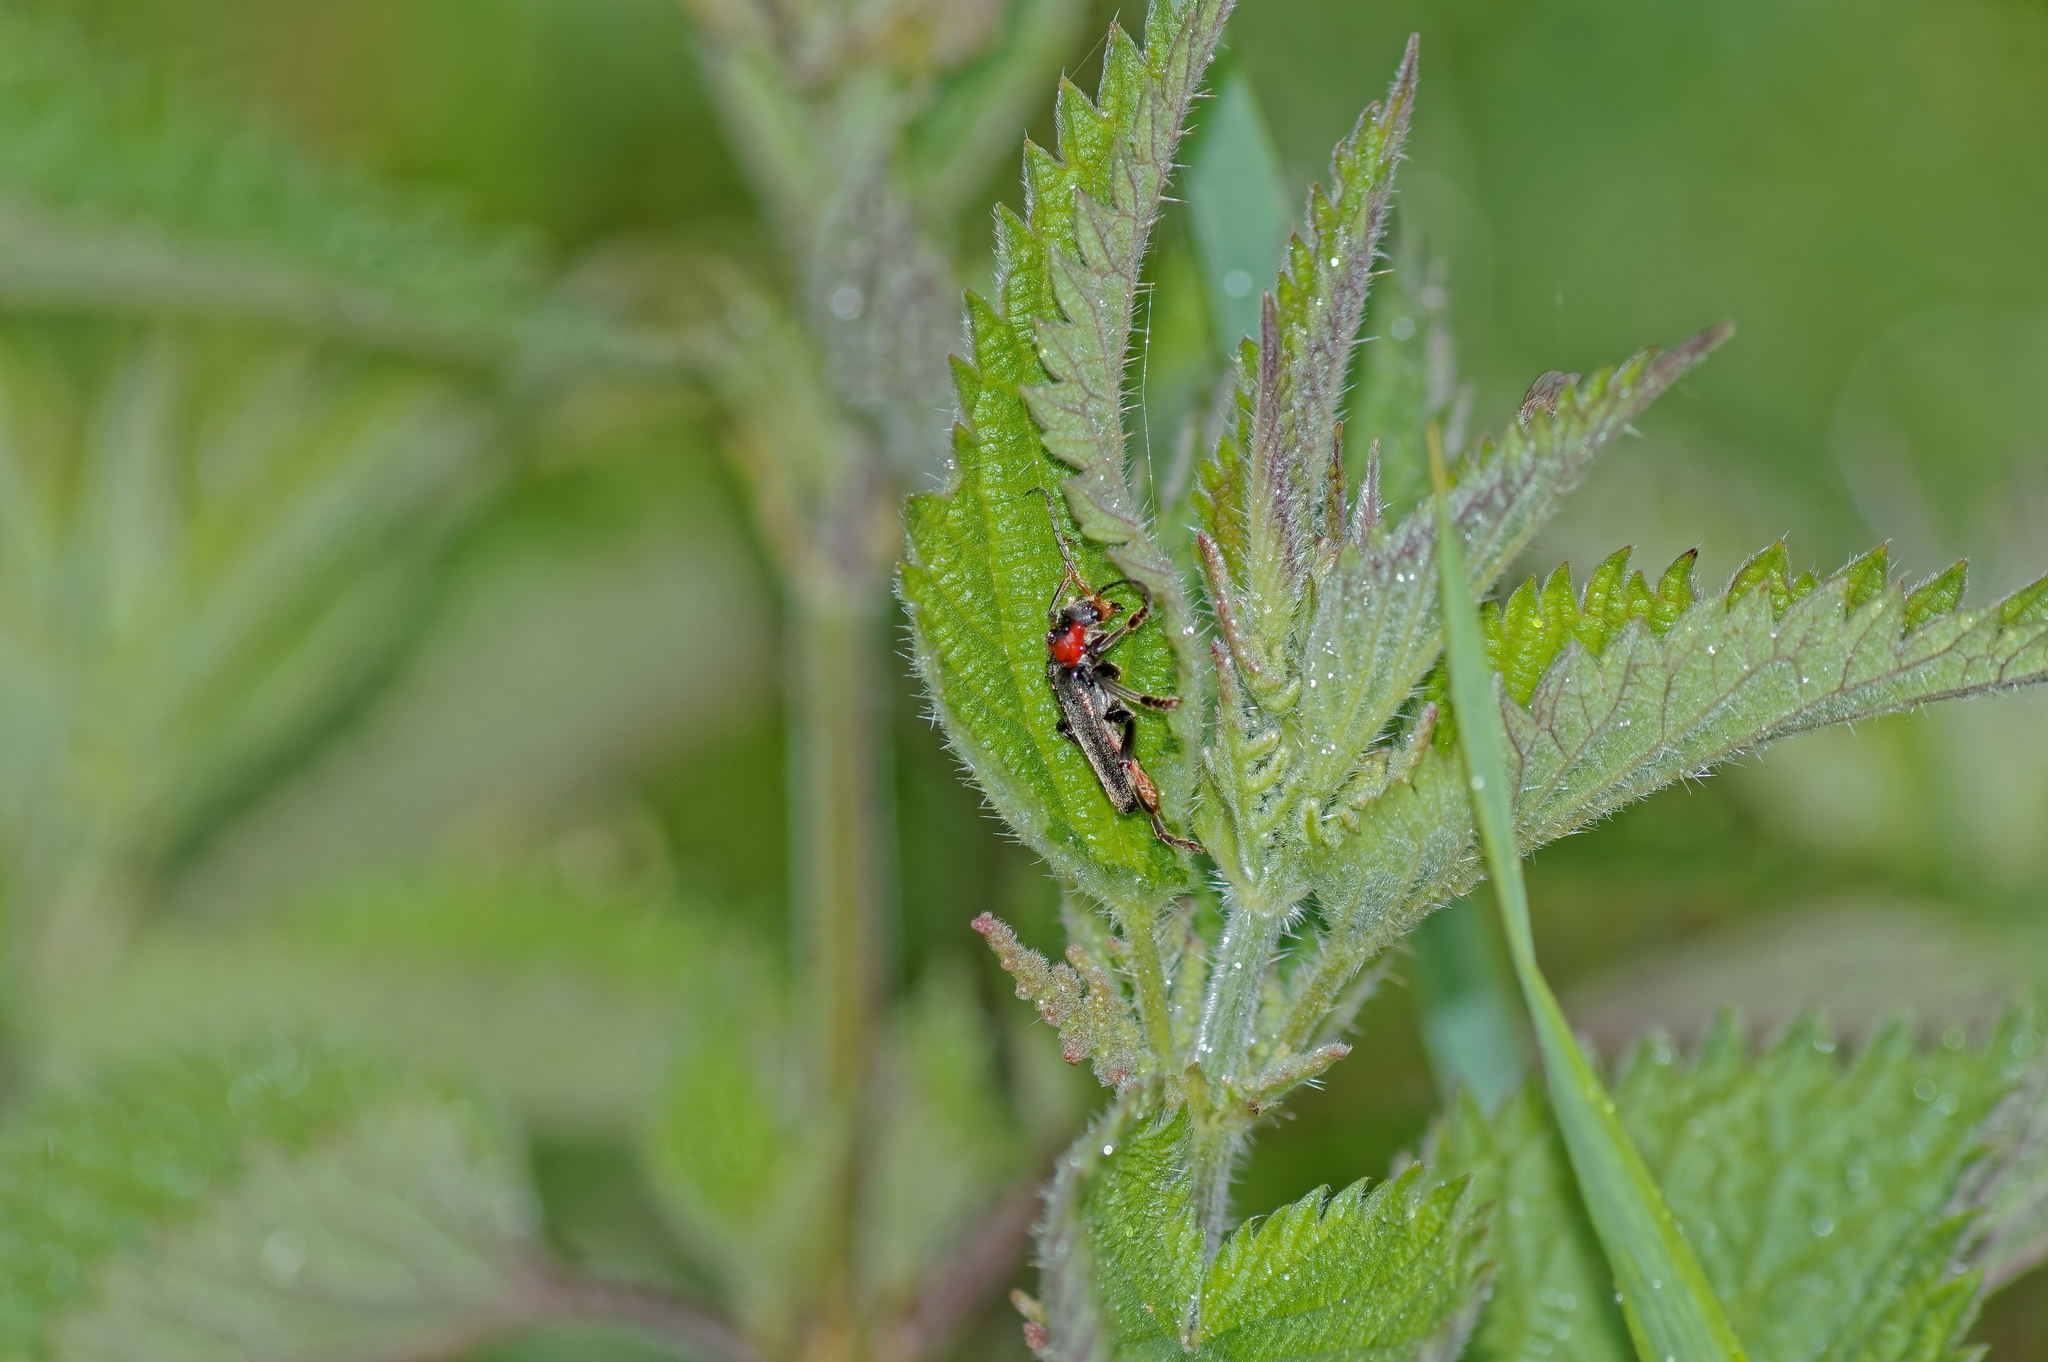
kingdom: Animalia
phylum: Arthropoda
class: Insecta
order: Coleoptera
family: Cantharidae
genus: Cantharis
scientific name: Cantharis fusca
